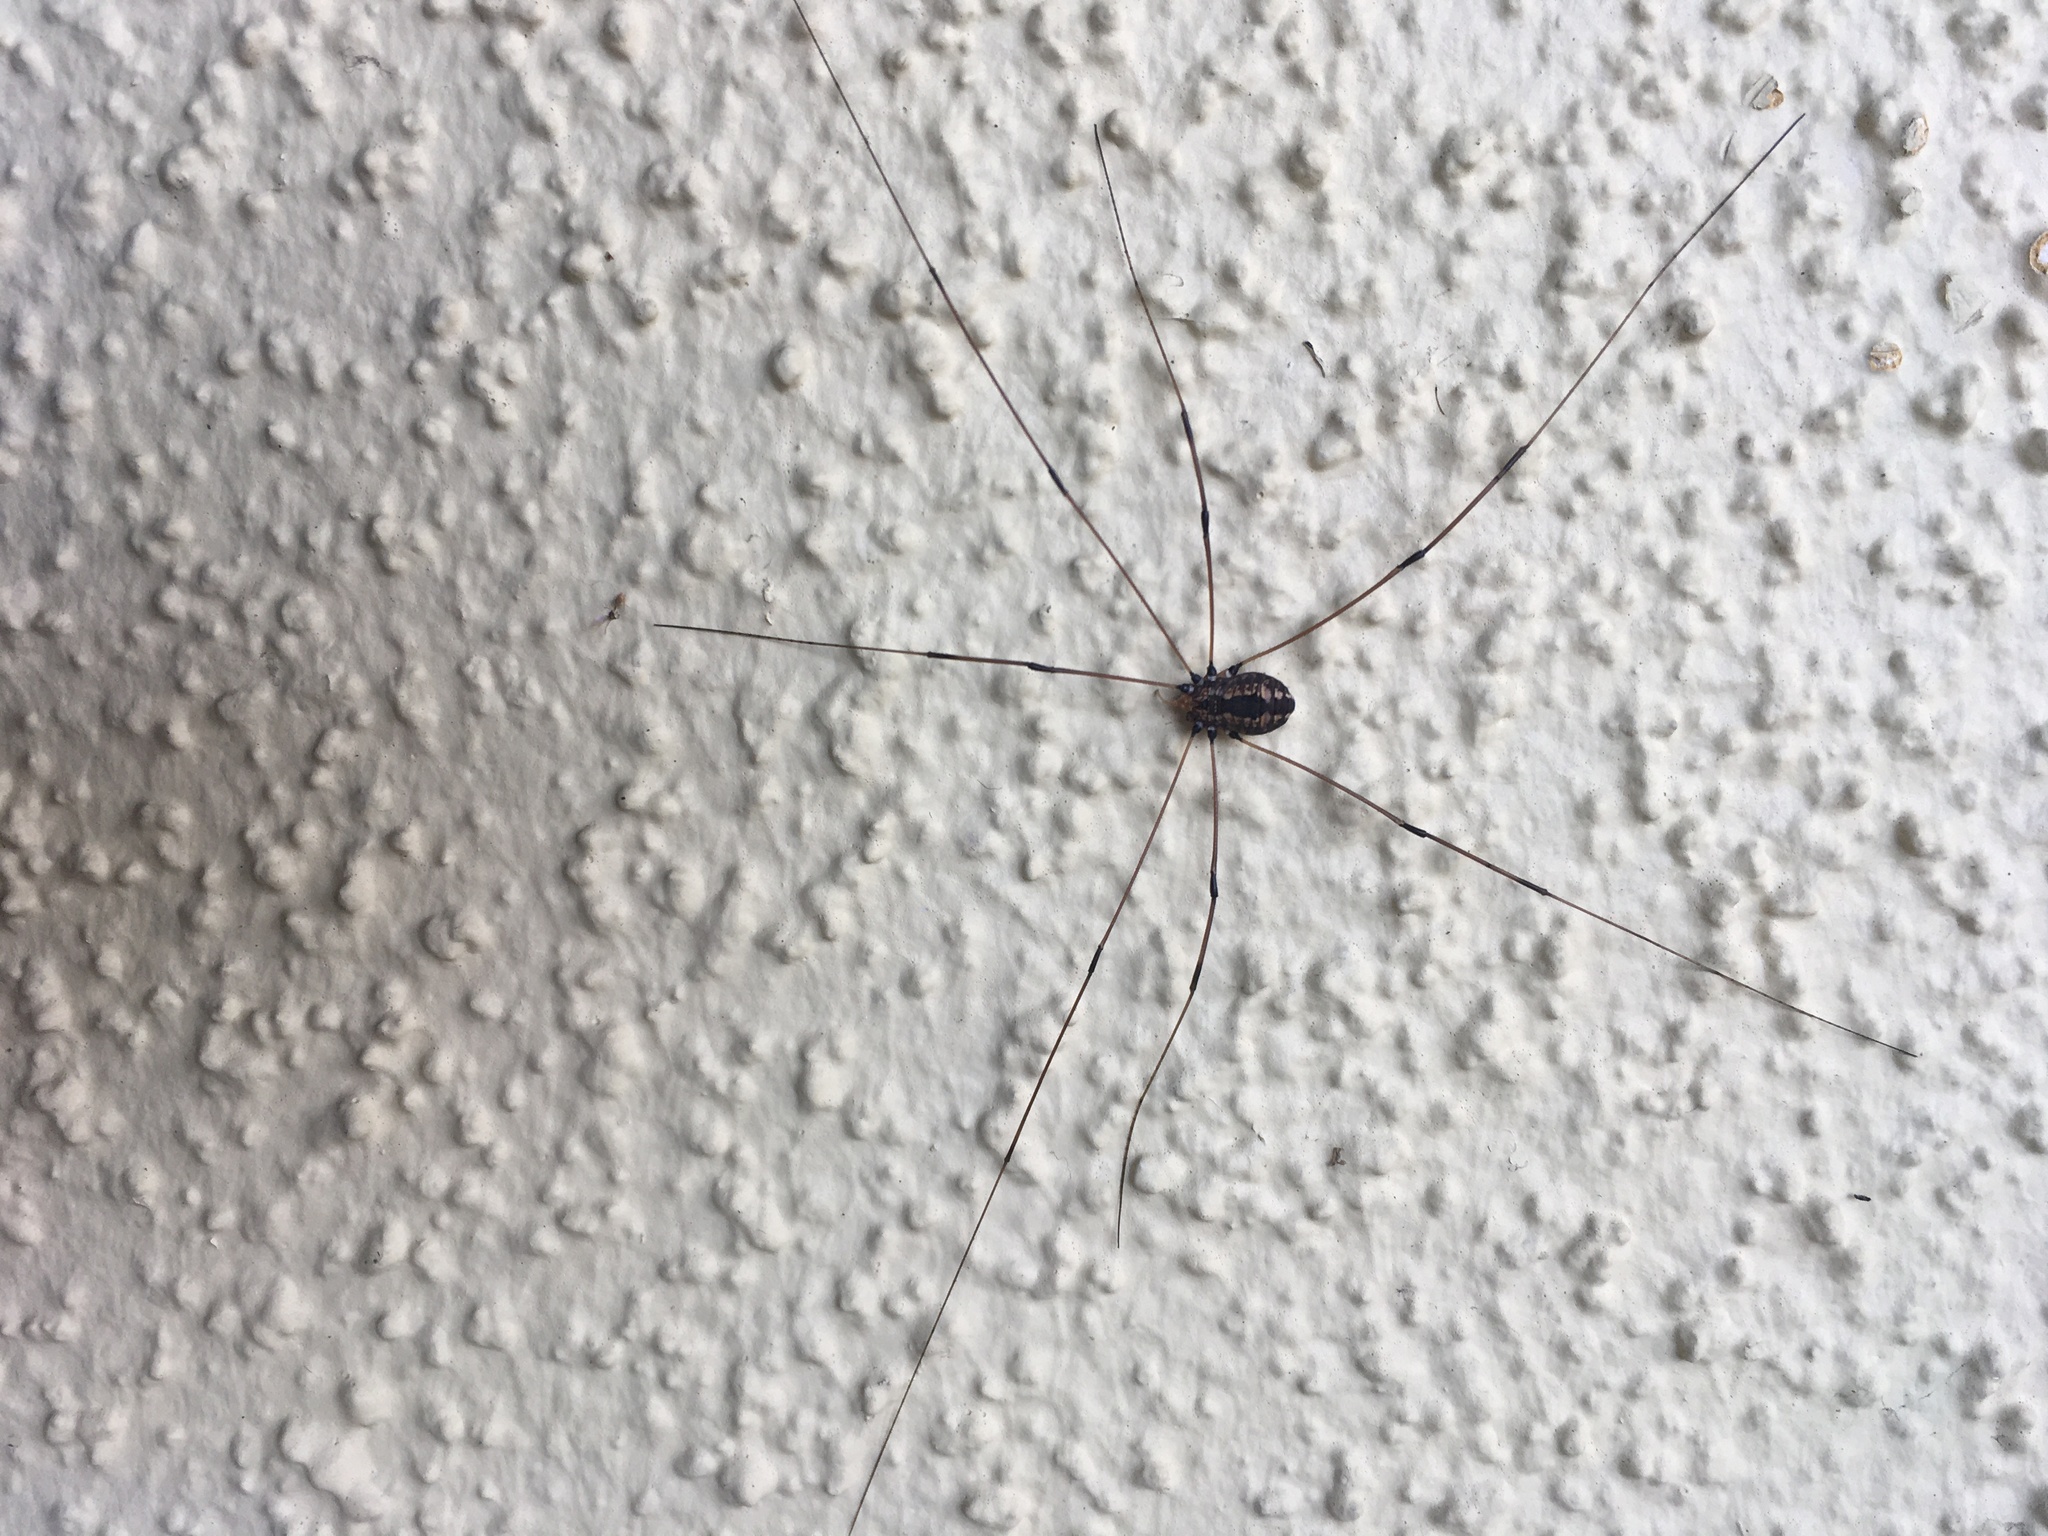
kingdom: Animalia
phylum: Arthropoda
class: Arachnida
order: Opiliones
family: Sclerosomatidae
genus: Leiobunum
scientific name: Leiobunum vittatum
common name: Eastern harvestman
